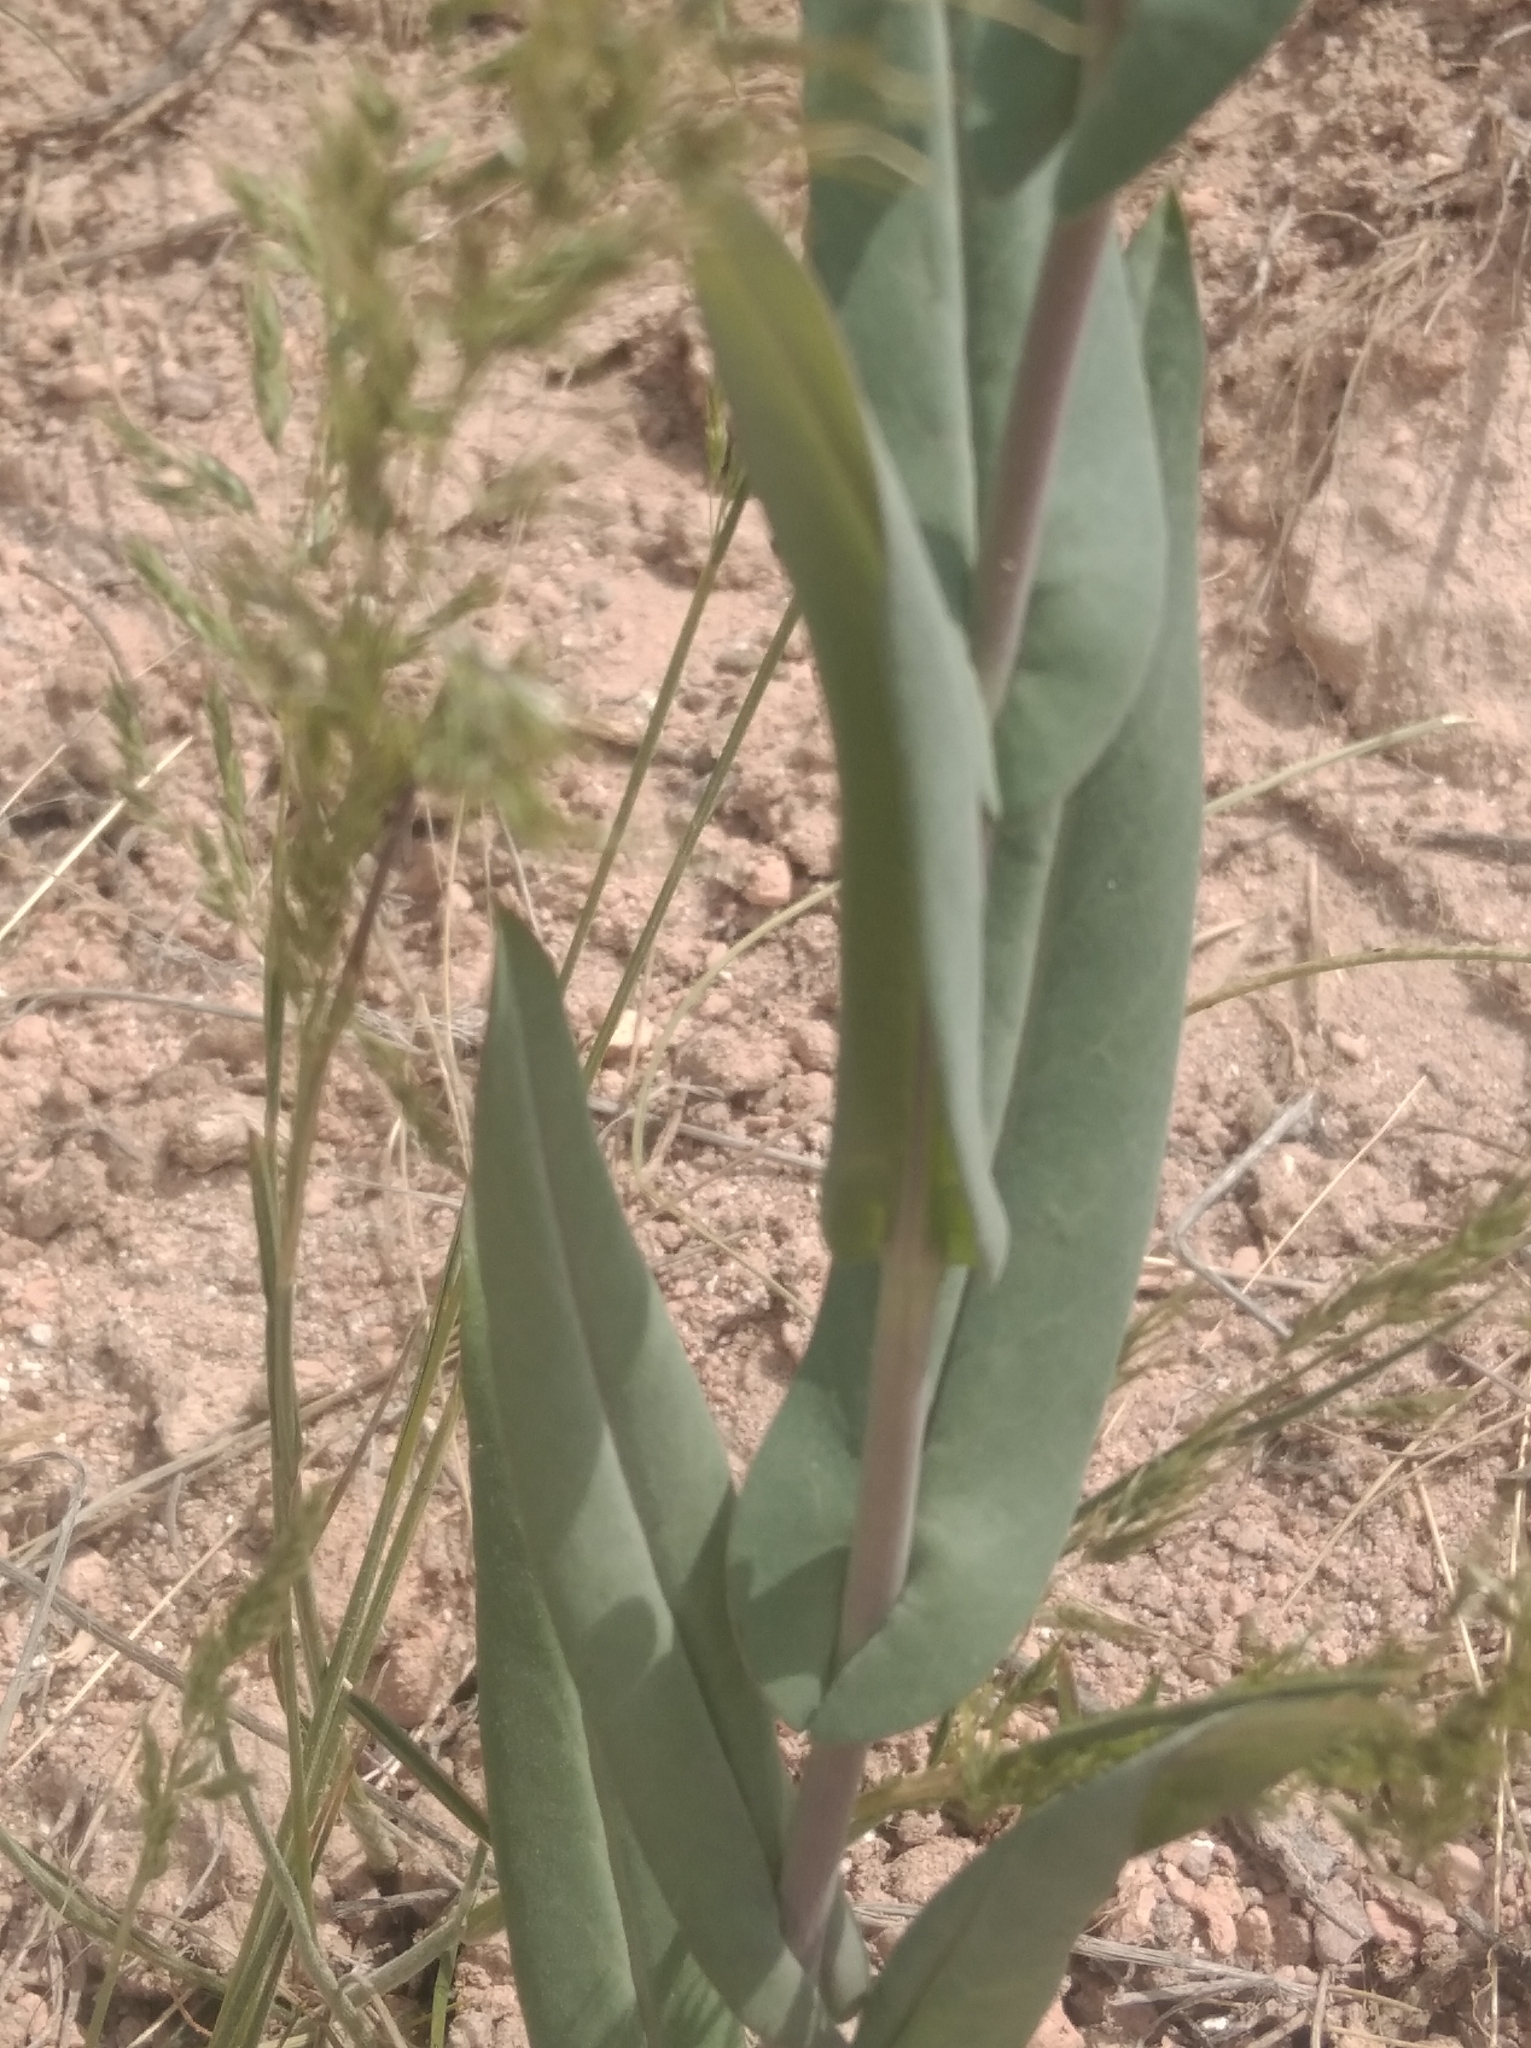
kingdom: Plantae
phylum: Tracheophyta
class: Magnoliopsida
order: Brassicales
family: Brassicaceae
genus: Turritis
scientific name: Turritis glabra
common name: Tower rockcress
